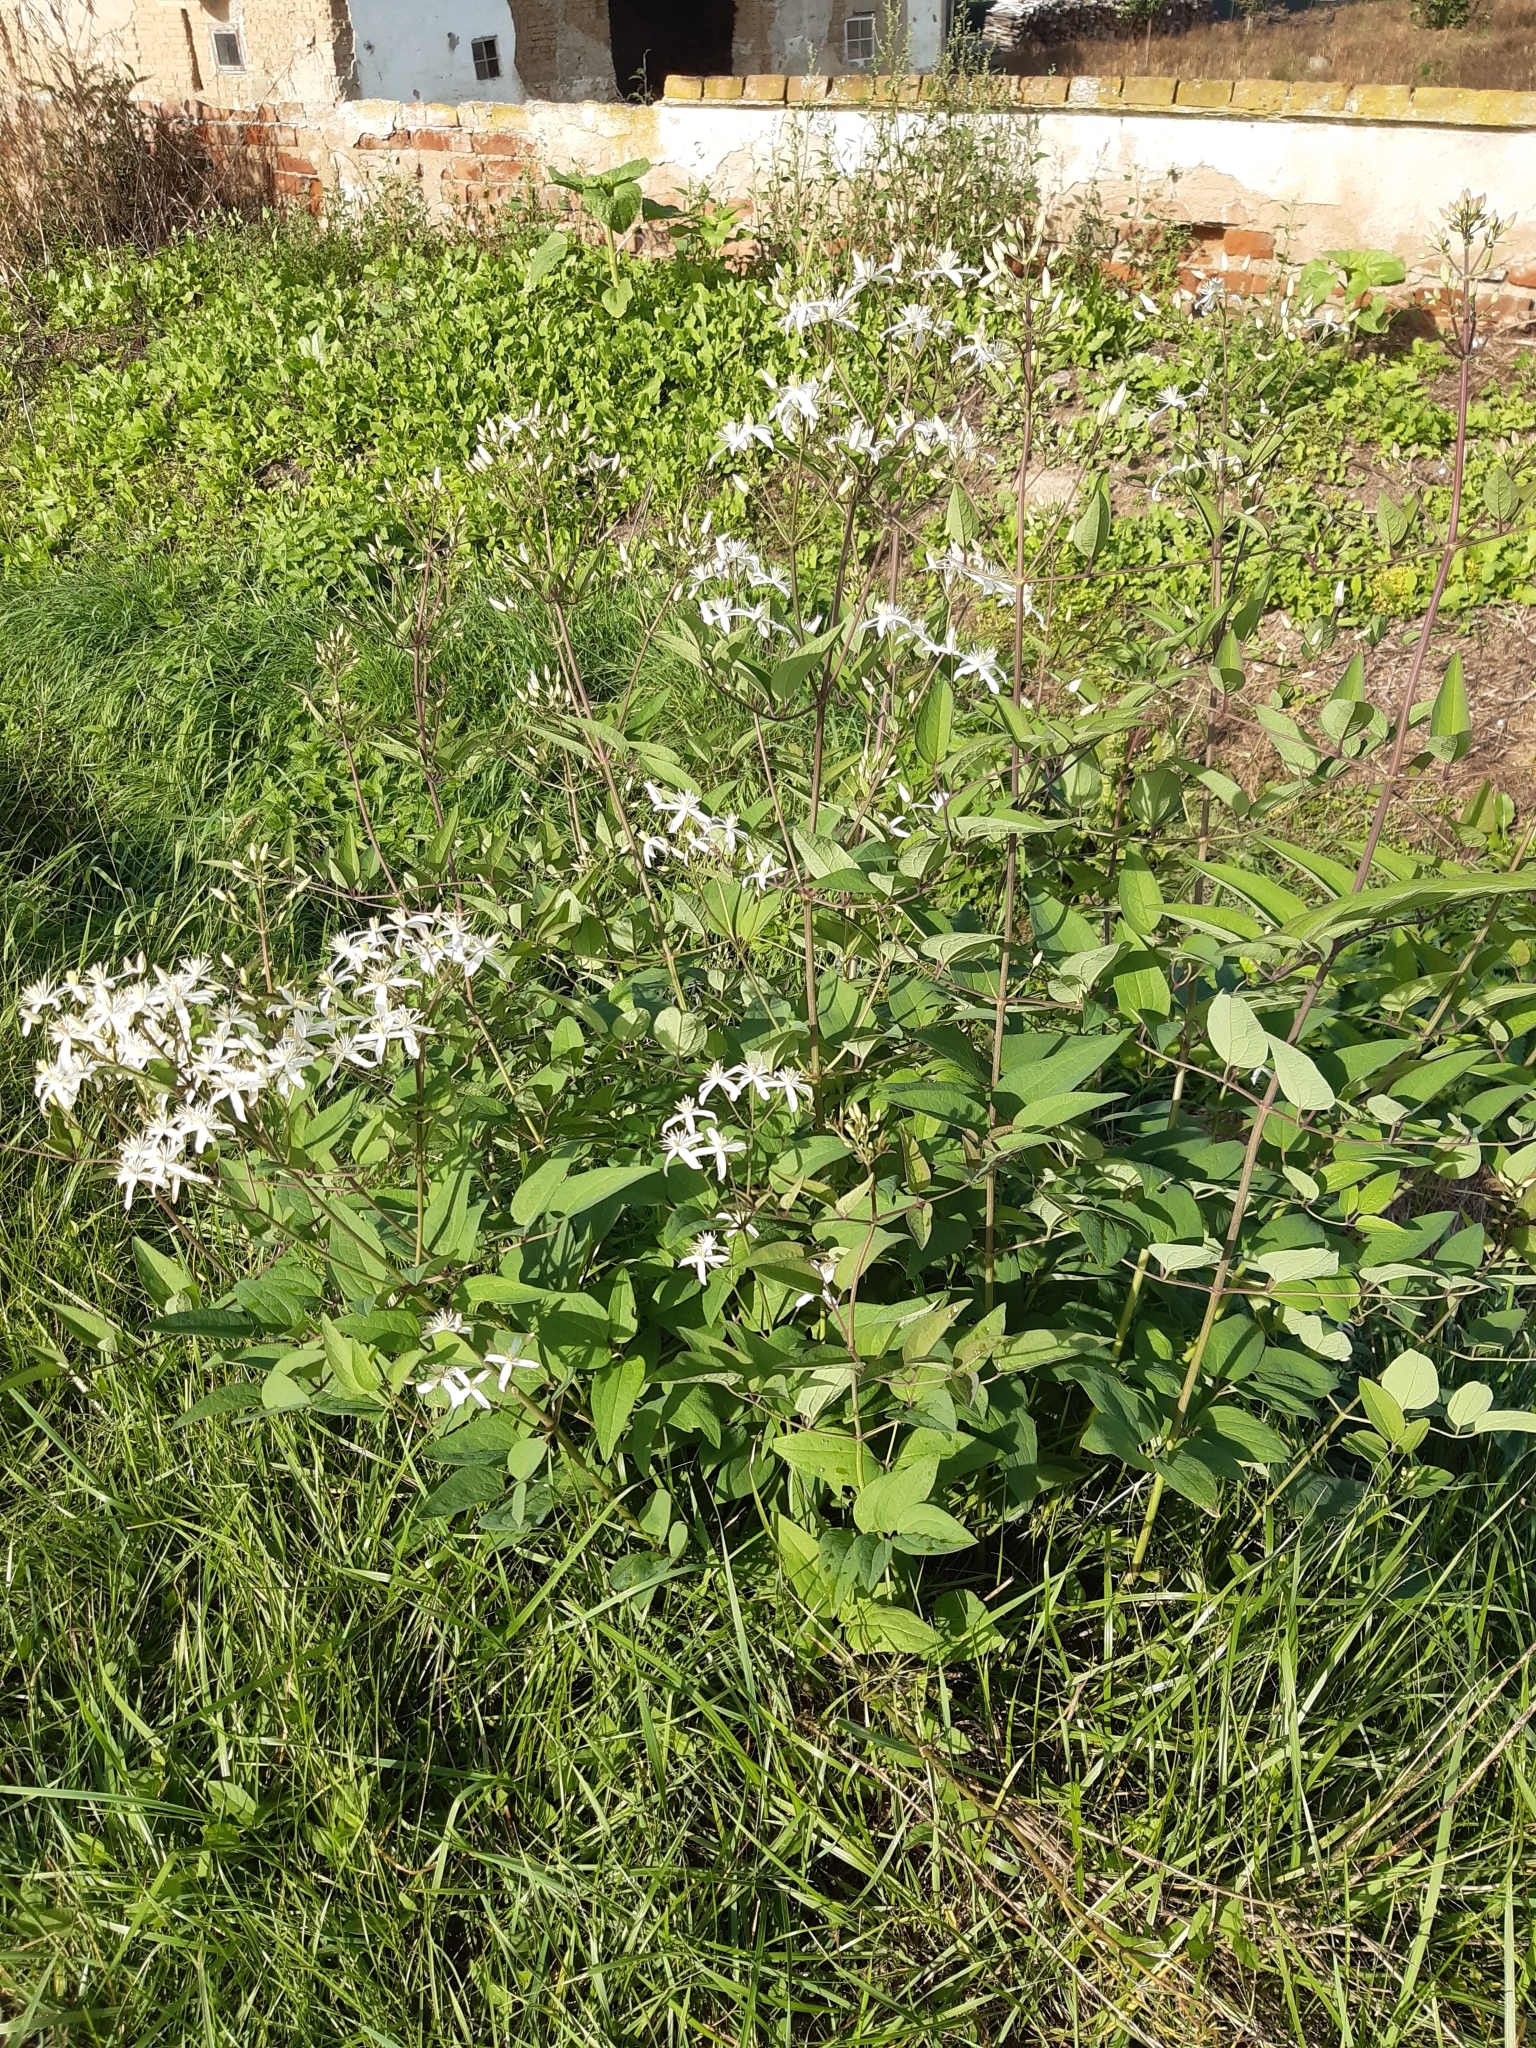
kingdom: Plantae
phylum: Tracheophyta
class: Magnoliopsida
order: Ranunculales
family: Ranunculaceae
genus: Clematis
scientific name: Clematis recta
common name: Ground clematis
